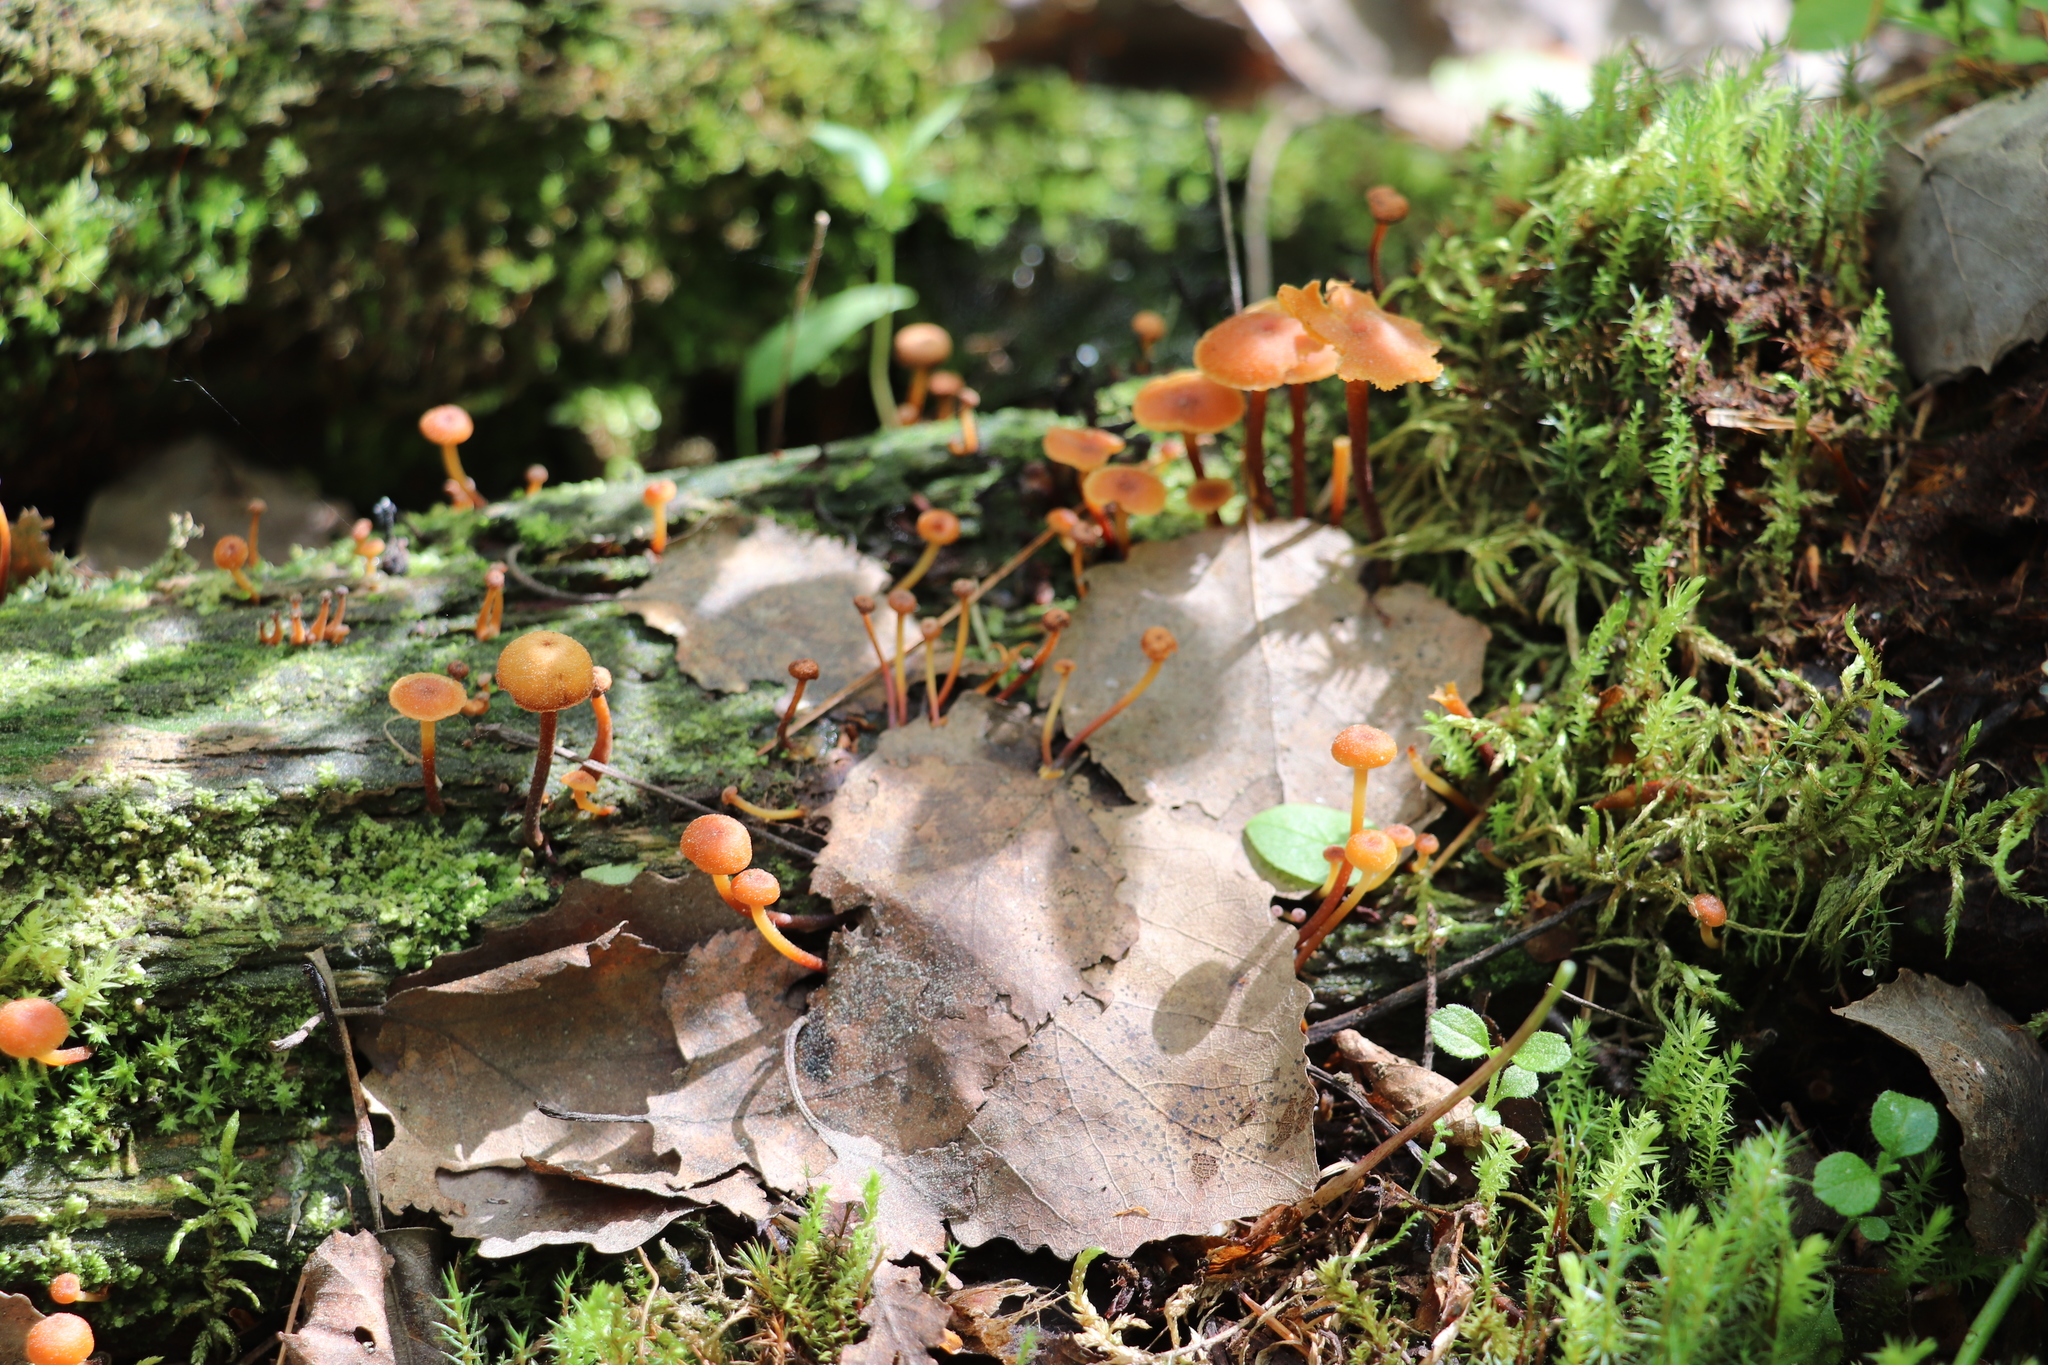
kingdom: Fungi
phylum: Basidiomycota
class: Agaricomycetes
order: Agaricales
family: Mycenaceae
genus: Xeromphalina
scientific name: Xeromphalina campanella
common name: Pinewood gingertail
